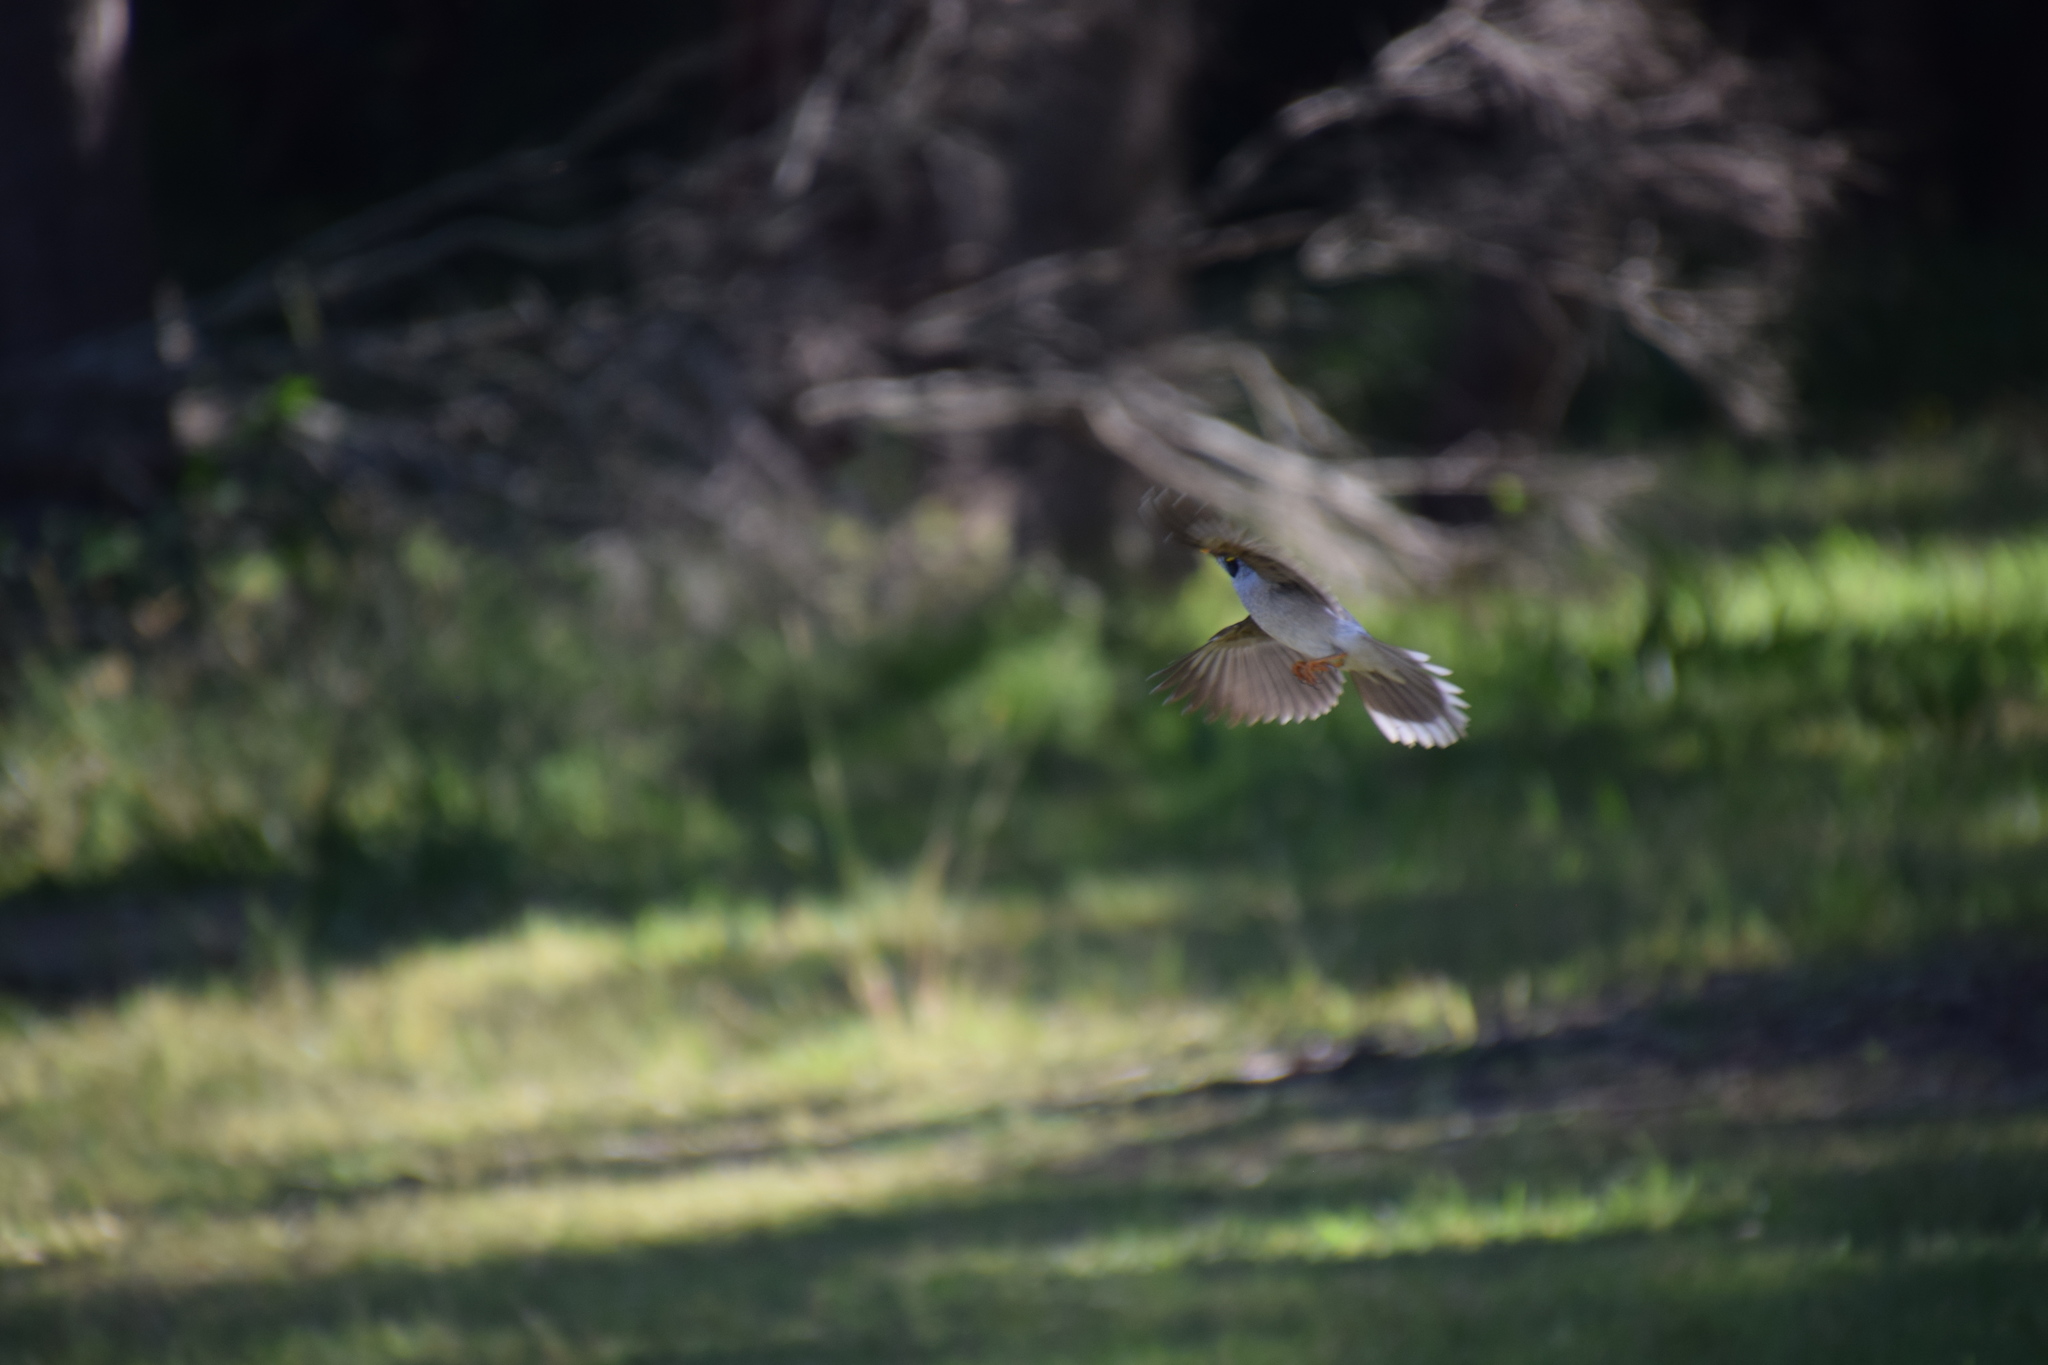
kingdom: Animalia
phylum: Chordata
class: Aves
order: Passeriformes
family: Meliphagidae
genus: Manorina
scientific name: Manorina melanocephala
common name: Noisy miner
